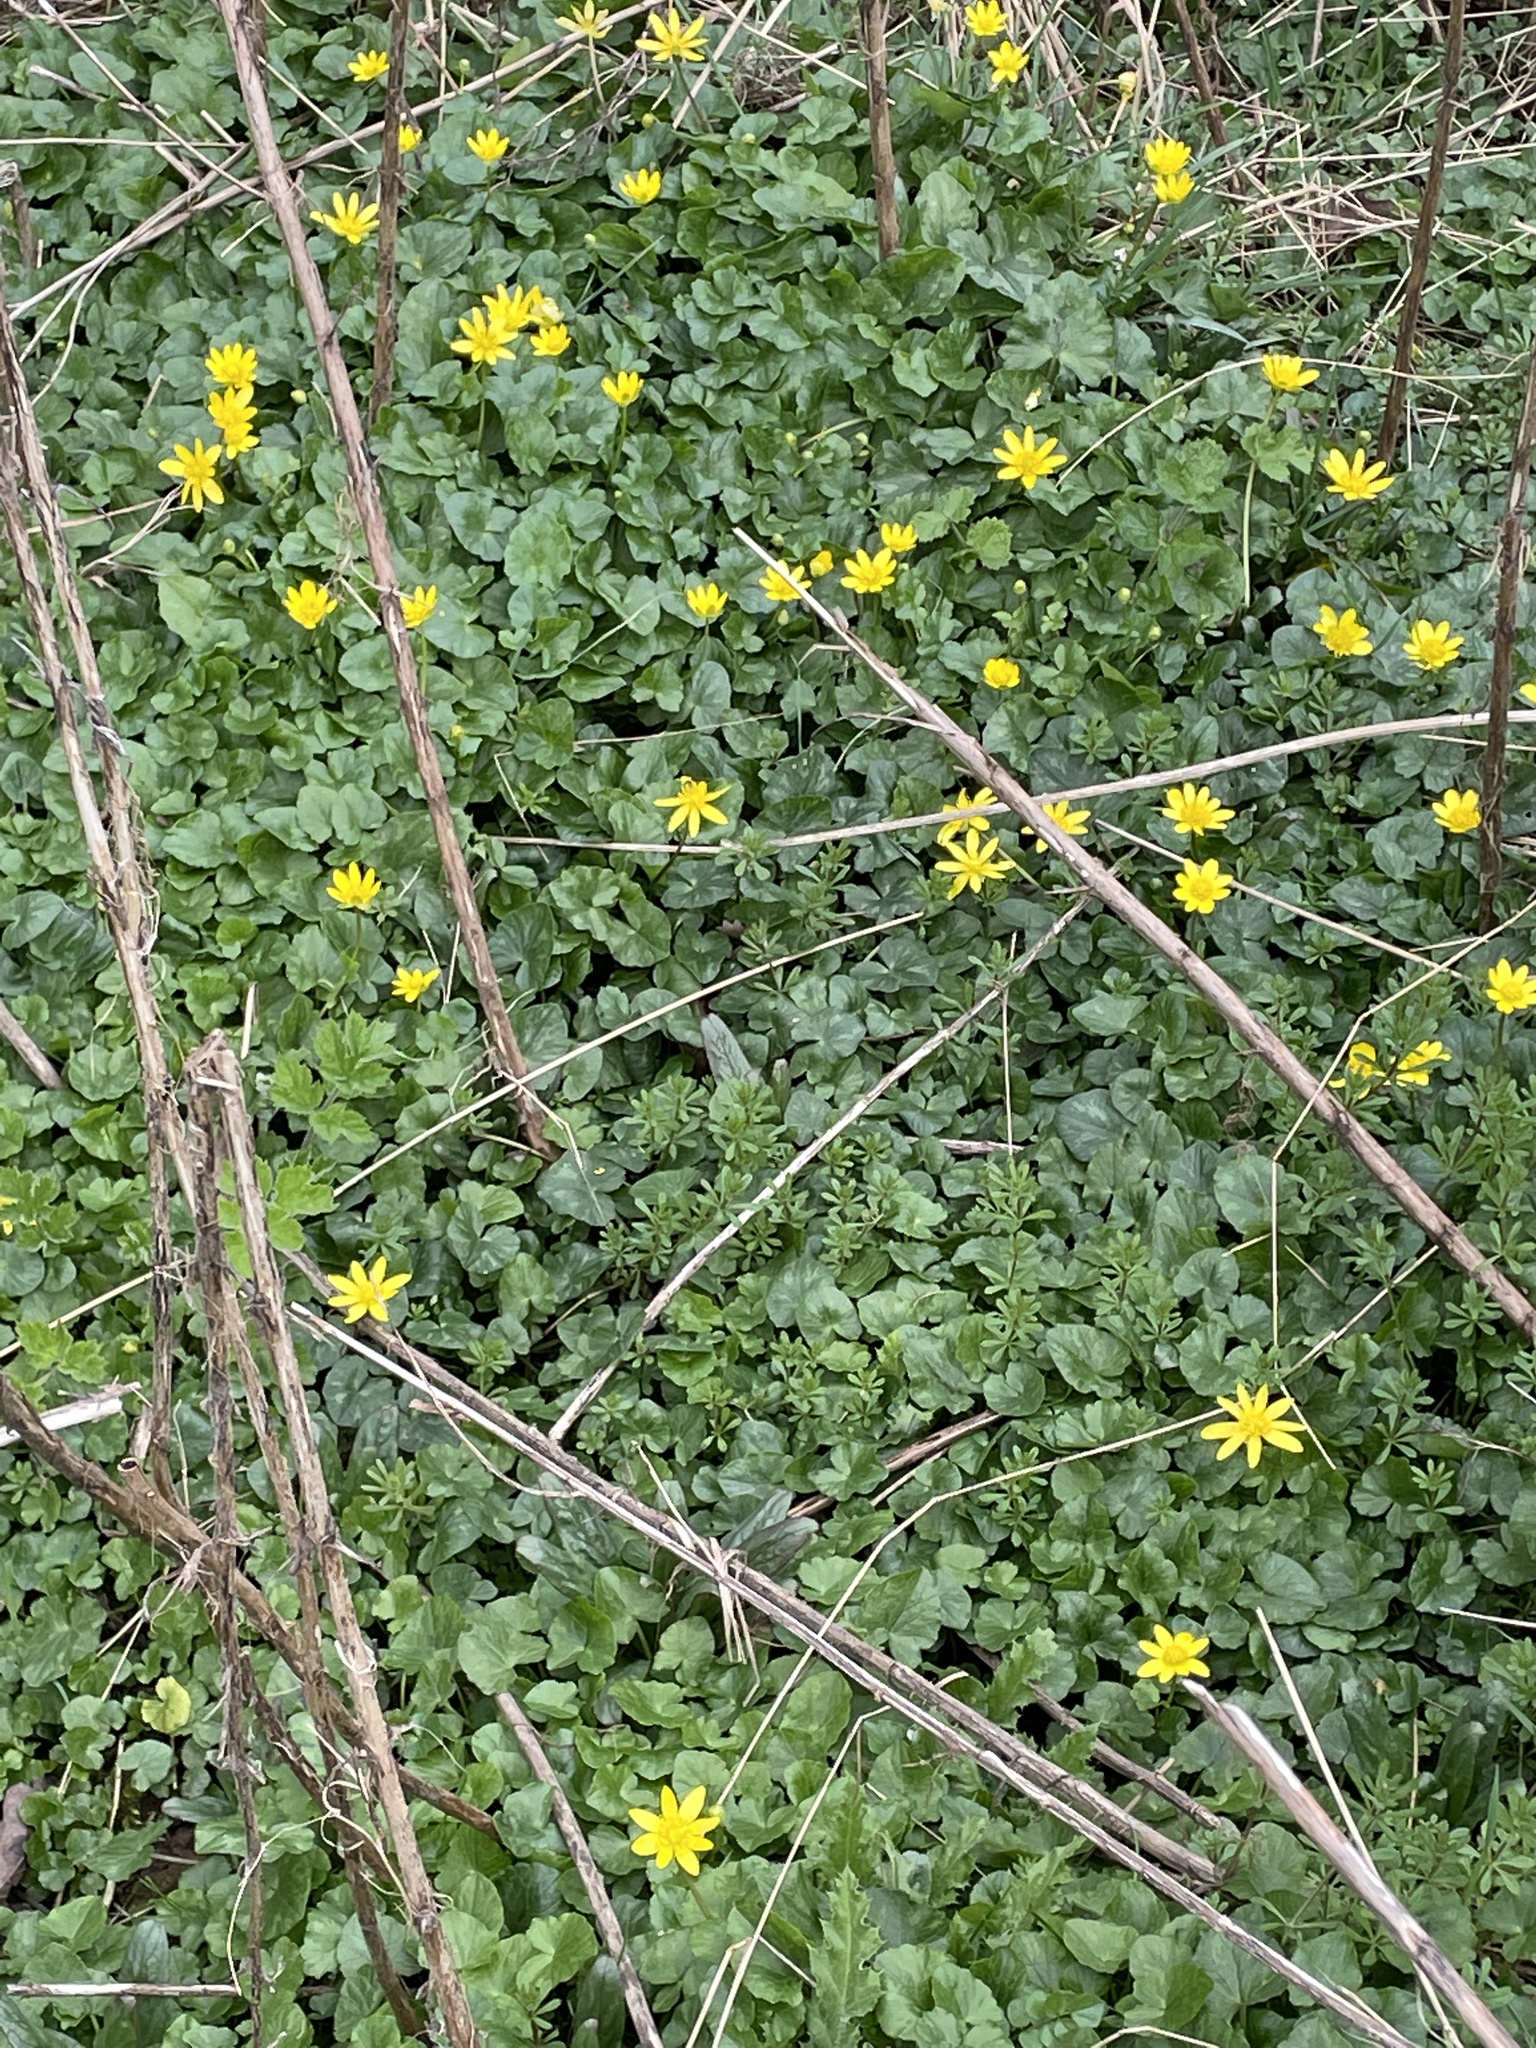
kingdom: Plantae
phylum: Tracheophyta
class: Magnoliopsida
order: Ranunculales
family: Ranunculaceae
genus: Ficaria
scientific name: Ficaria verna
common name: Lesser celandine
